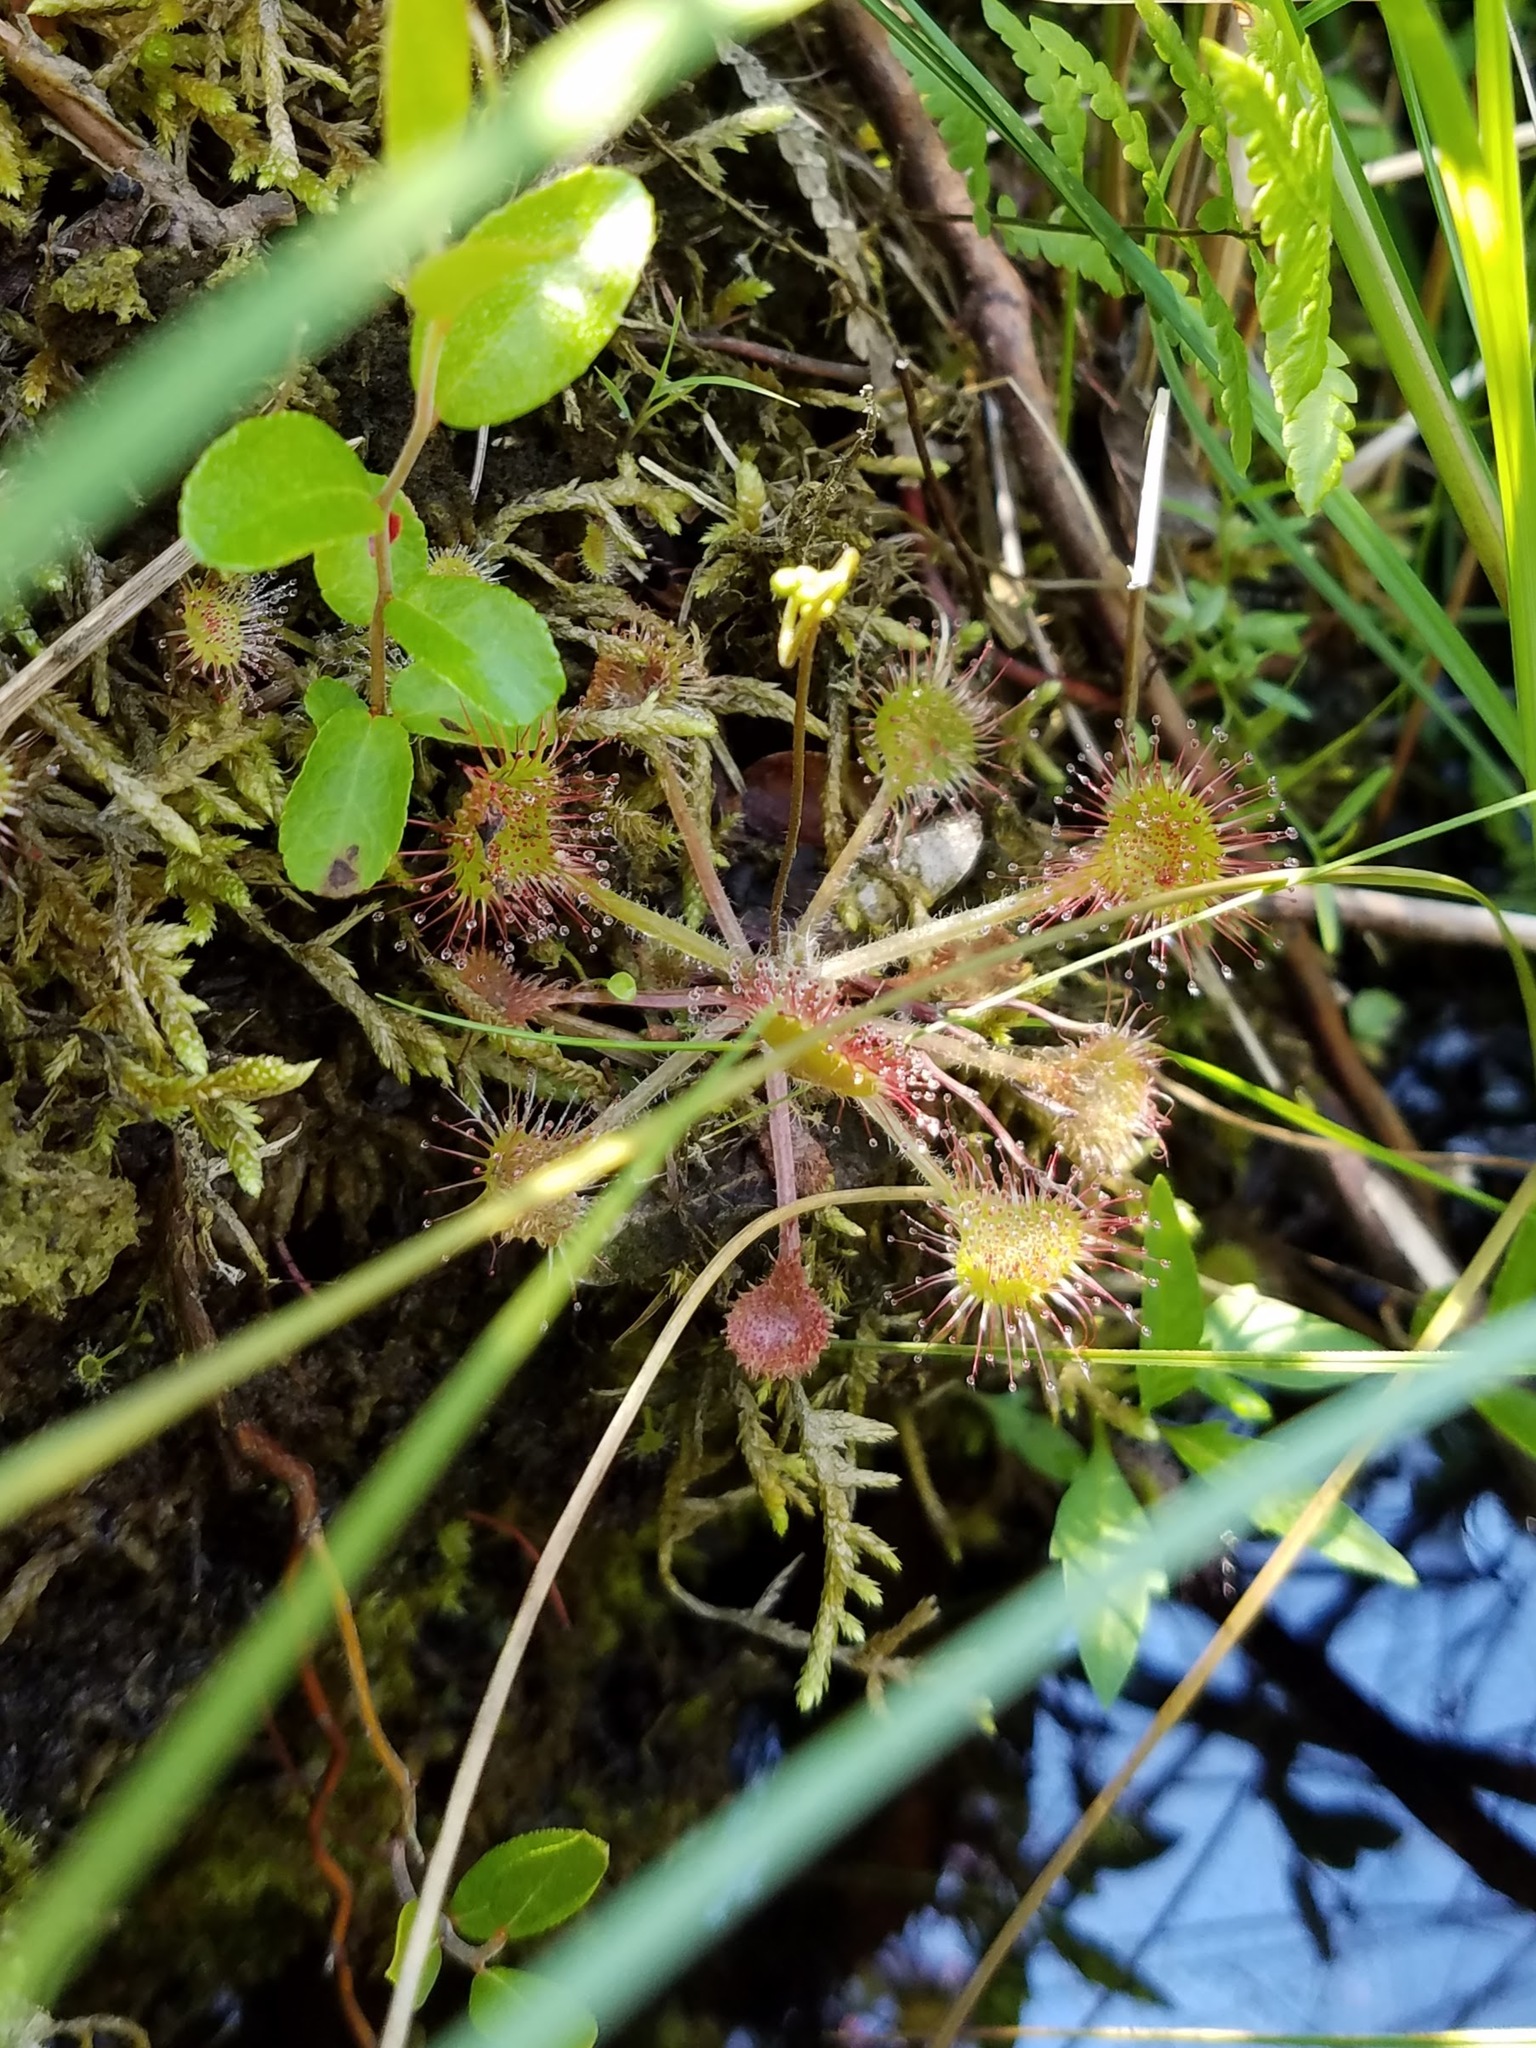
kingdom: Plantae
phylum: Tracheophyta
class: Magnoliopsida
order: Caryophyllales
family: Droseraceae
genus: Drosera
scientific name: Drosera rotundifolia
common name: Round-leaved sundew
